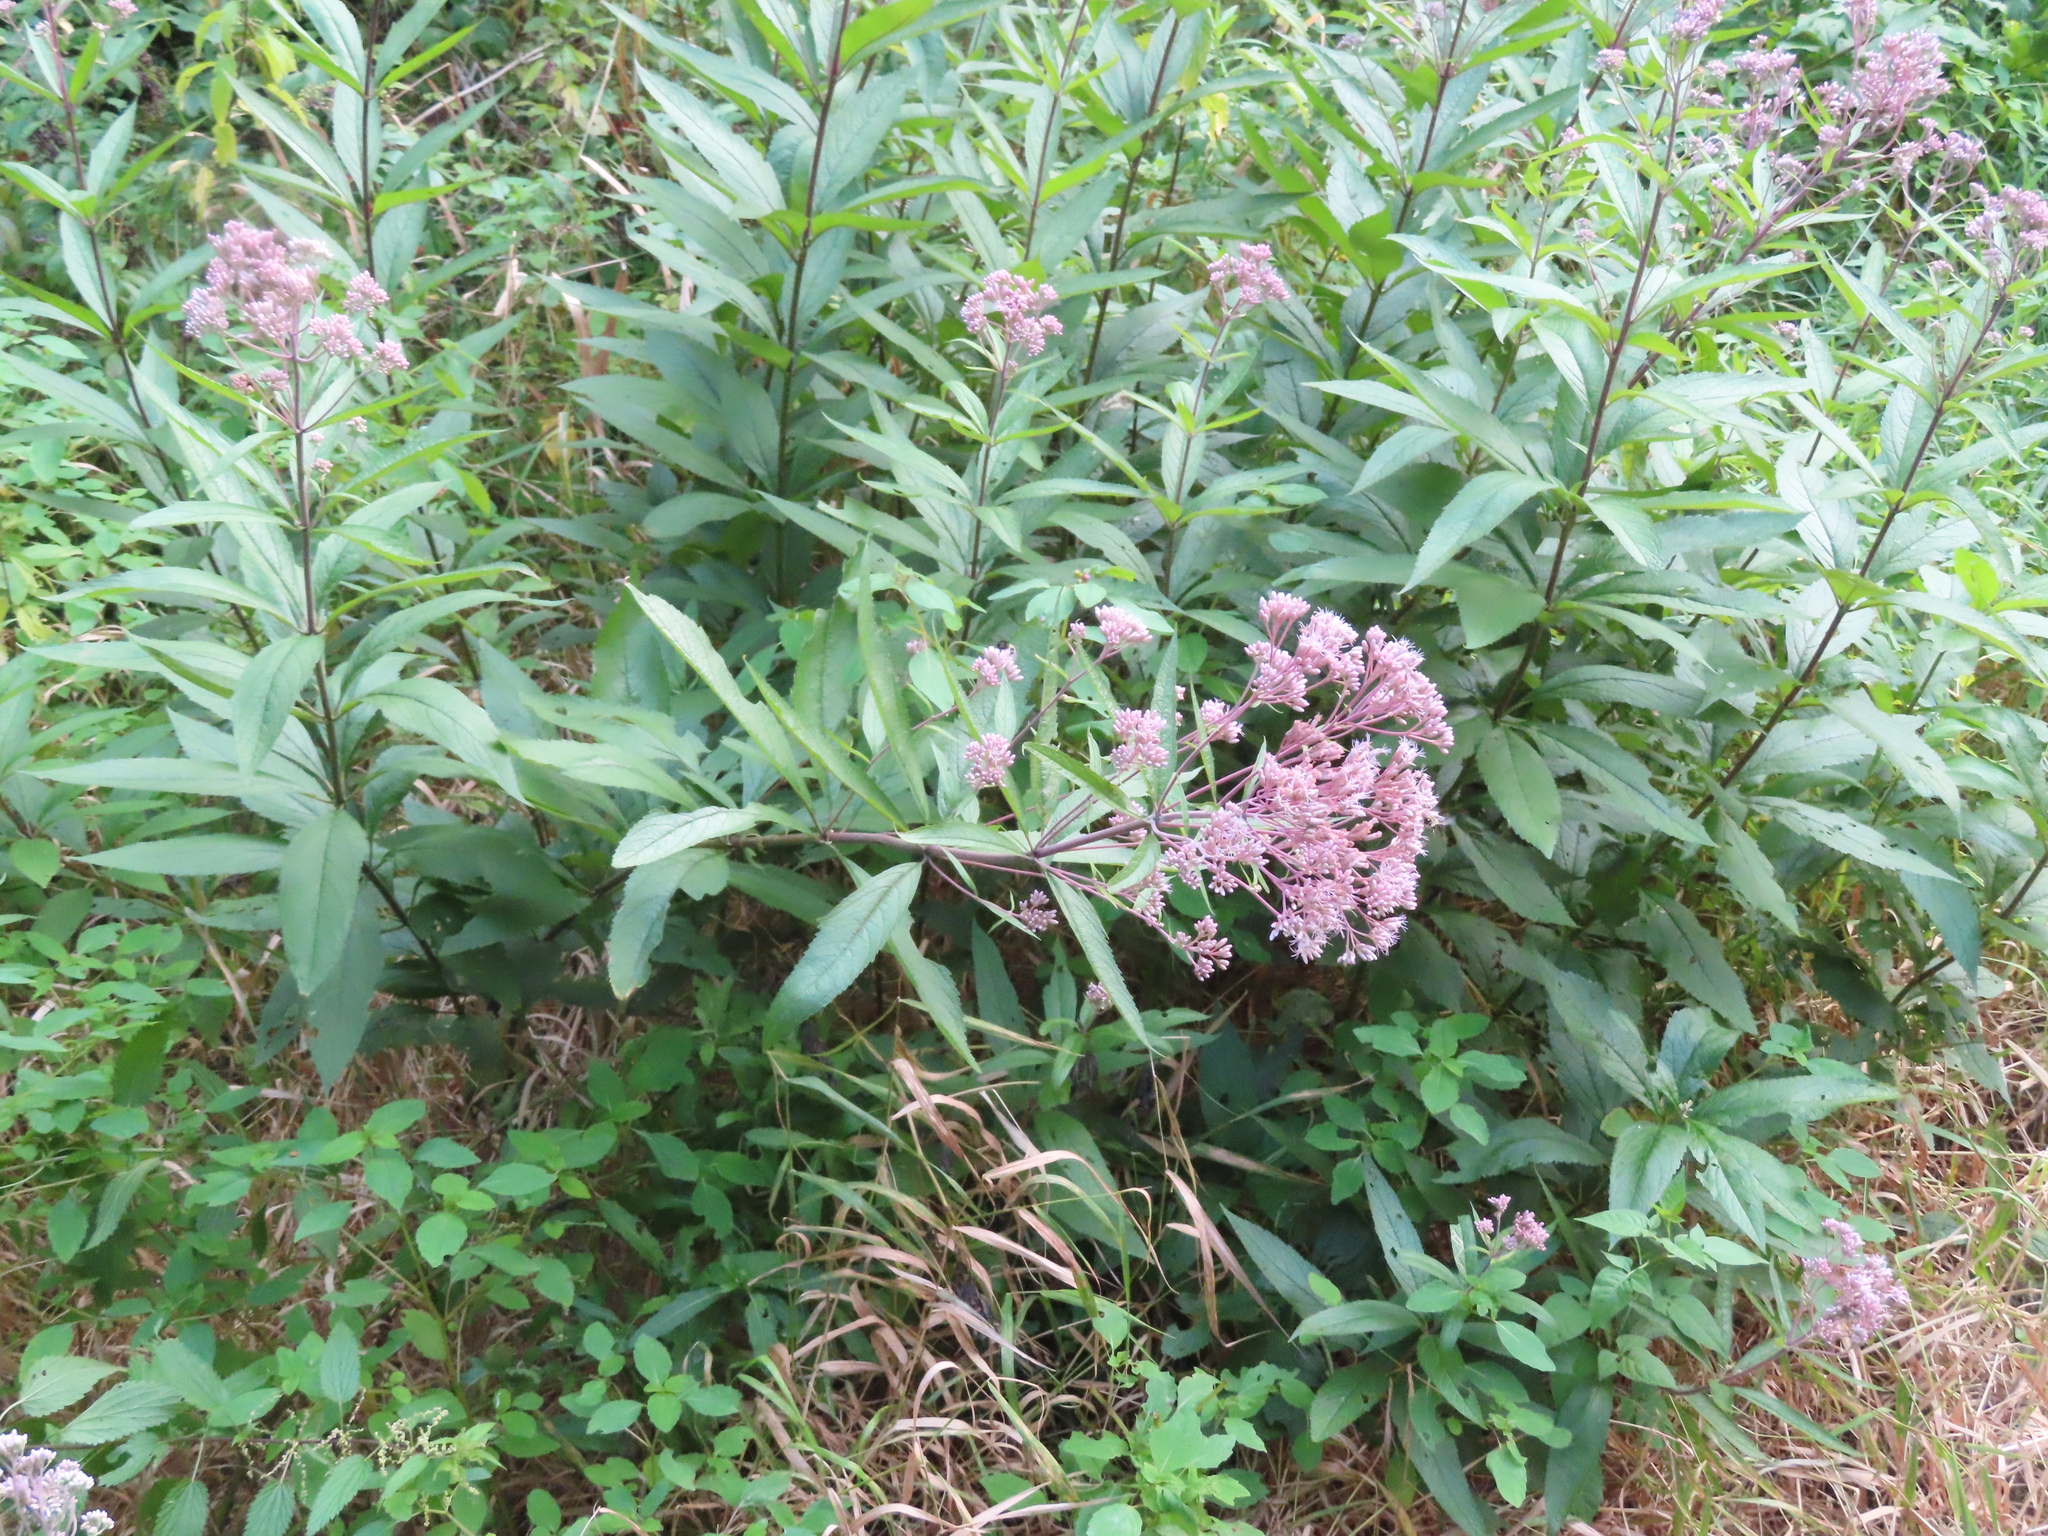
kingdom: Plantae
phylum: Tracheophyta
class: Magnoliopsida
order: Asterales
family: Asteraceae
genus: Eutrochium
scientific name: Eutrochium maculatum
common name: Spotted joe pye weed
